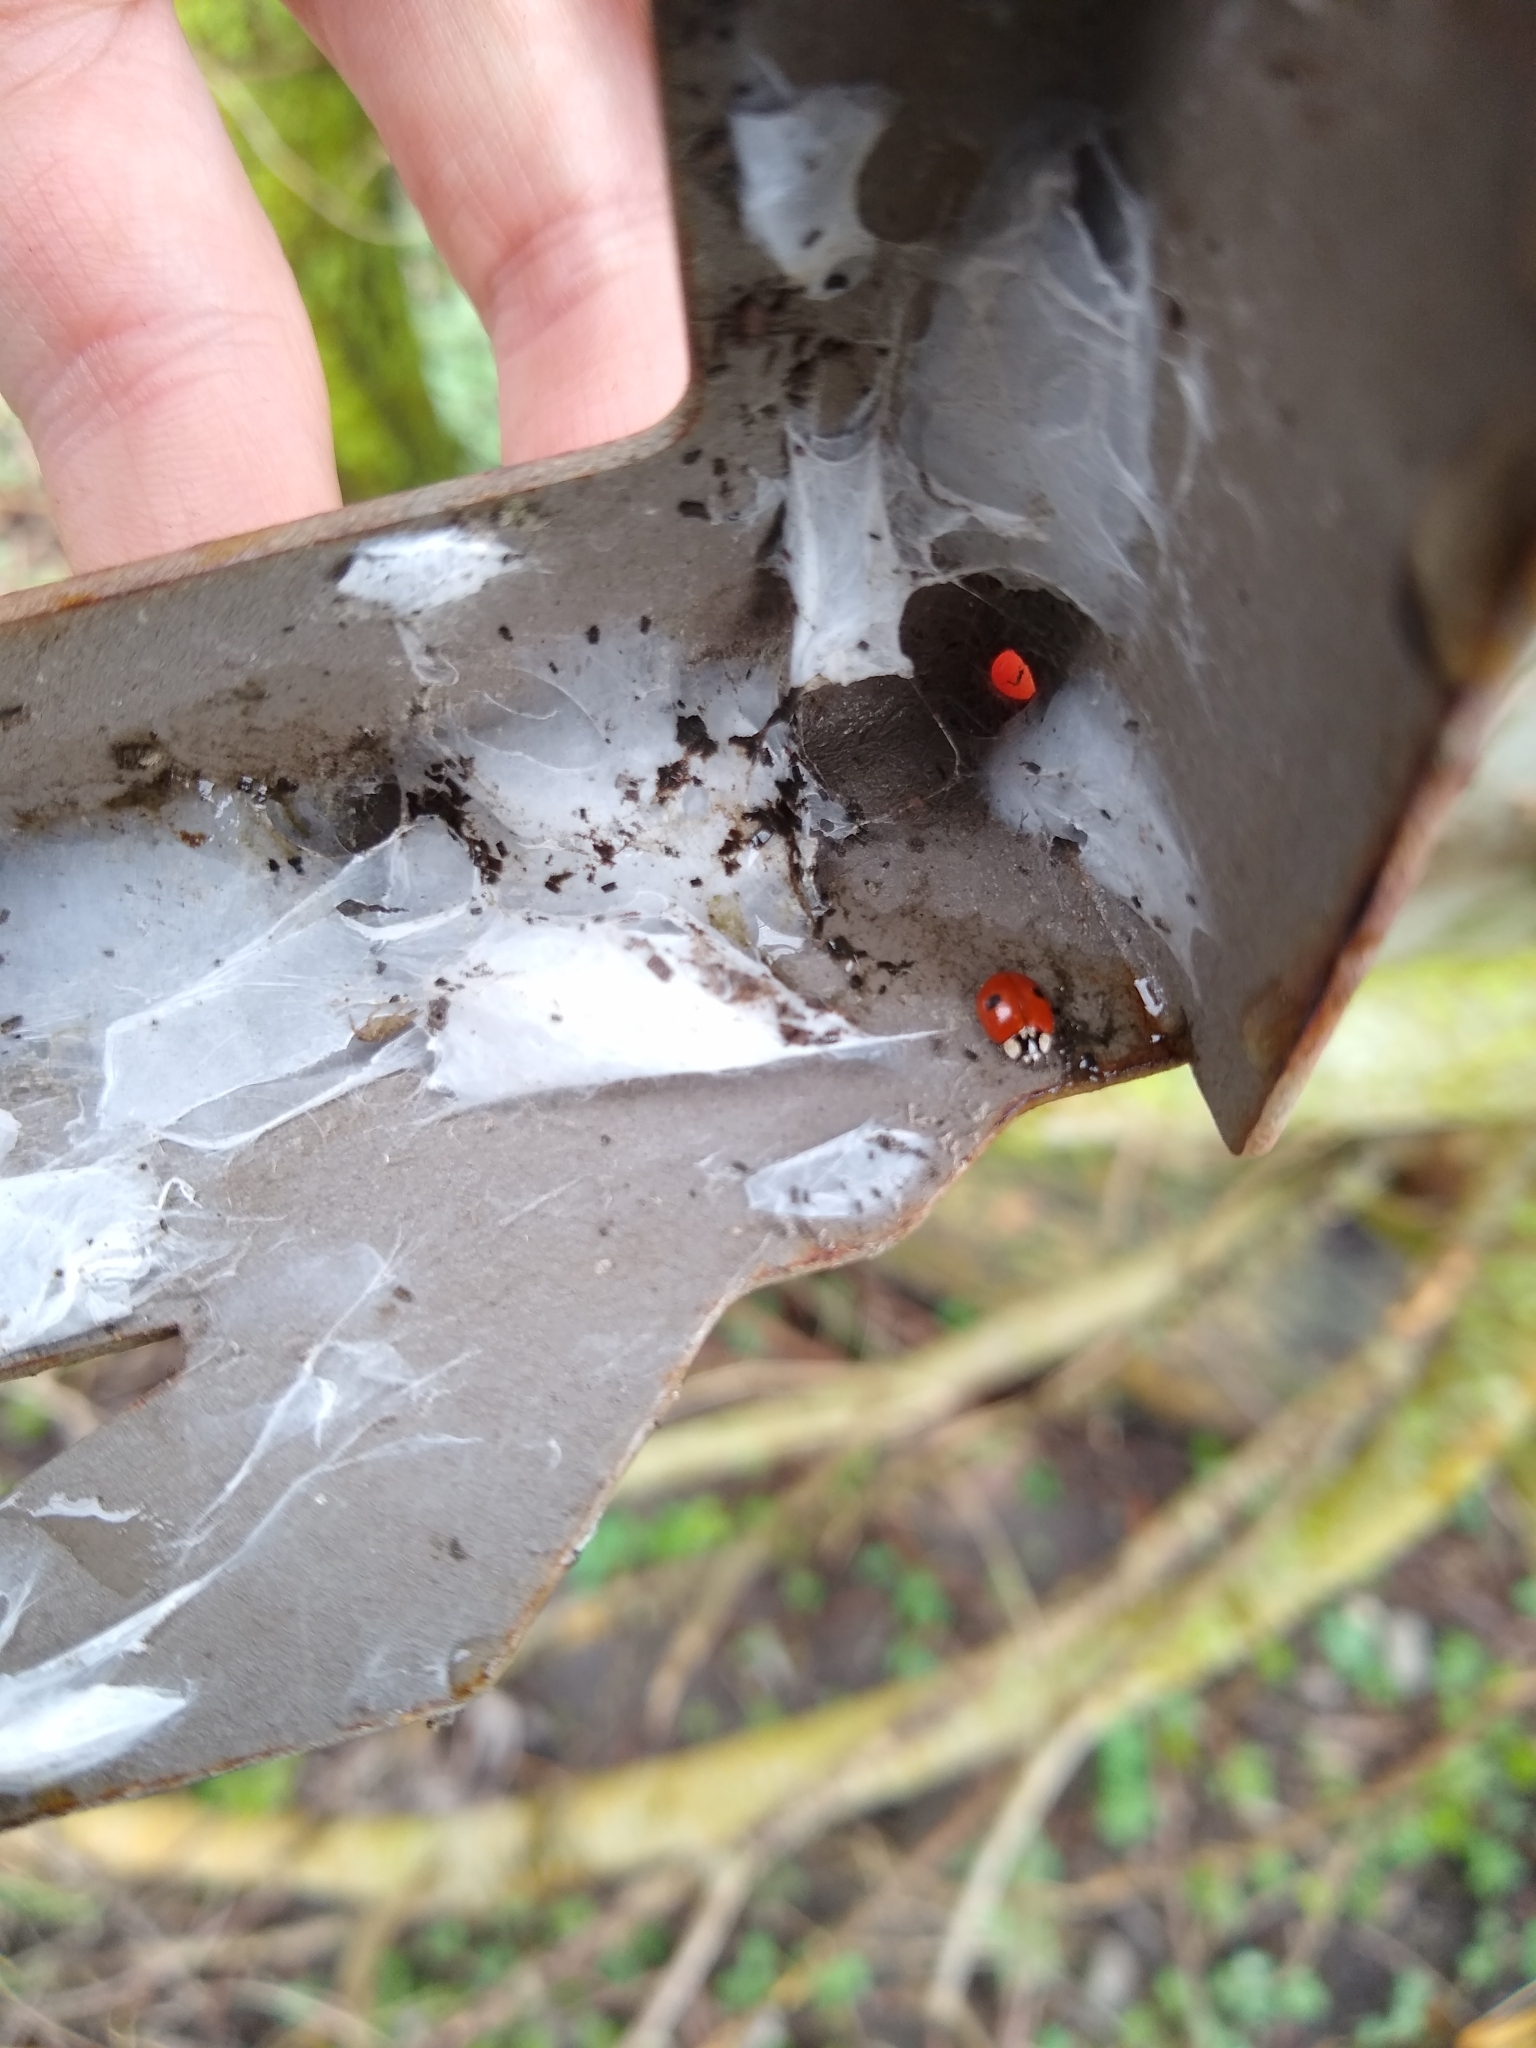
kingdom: Animalia
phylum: Arthropoda
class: Insecta
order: Coleoptera
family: Coccinellidae
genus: Adalia
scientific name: Adalia bipunctata
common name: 2-spot ladybird
